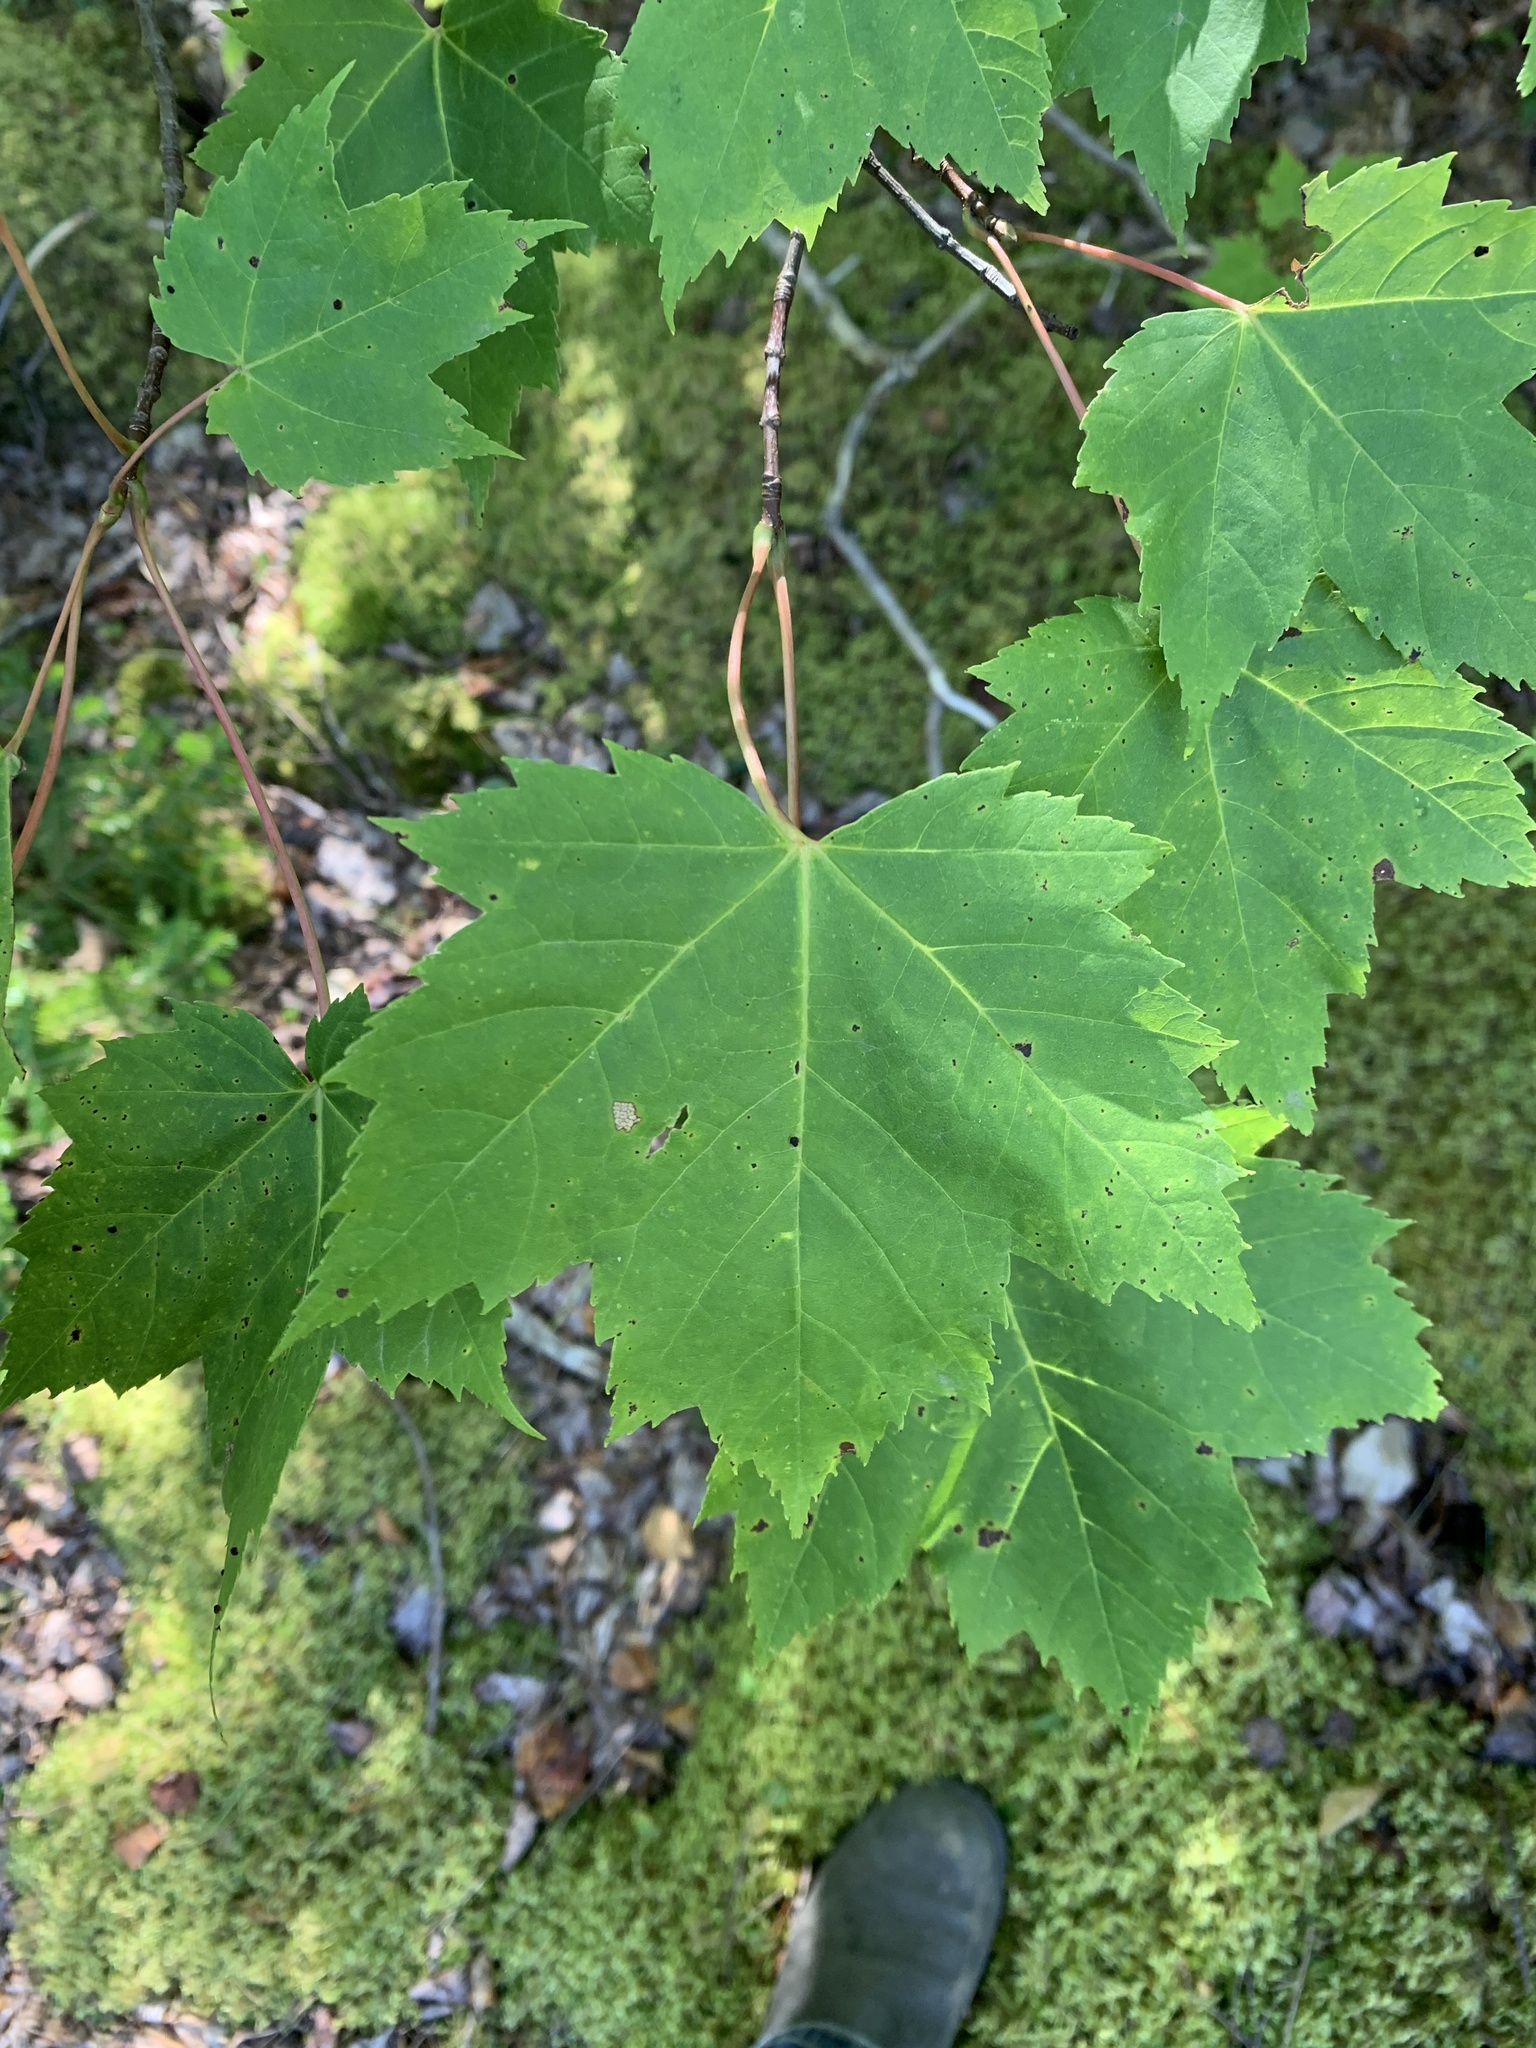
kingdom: Plantae
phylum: Tracheophyta
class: Magnoliopsida
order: Sapindales
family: Sapindaceae
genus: Acer
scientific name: Acer rubrum
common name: Red maple
